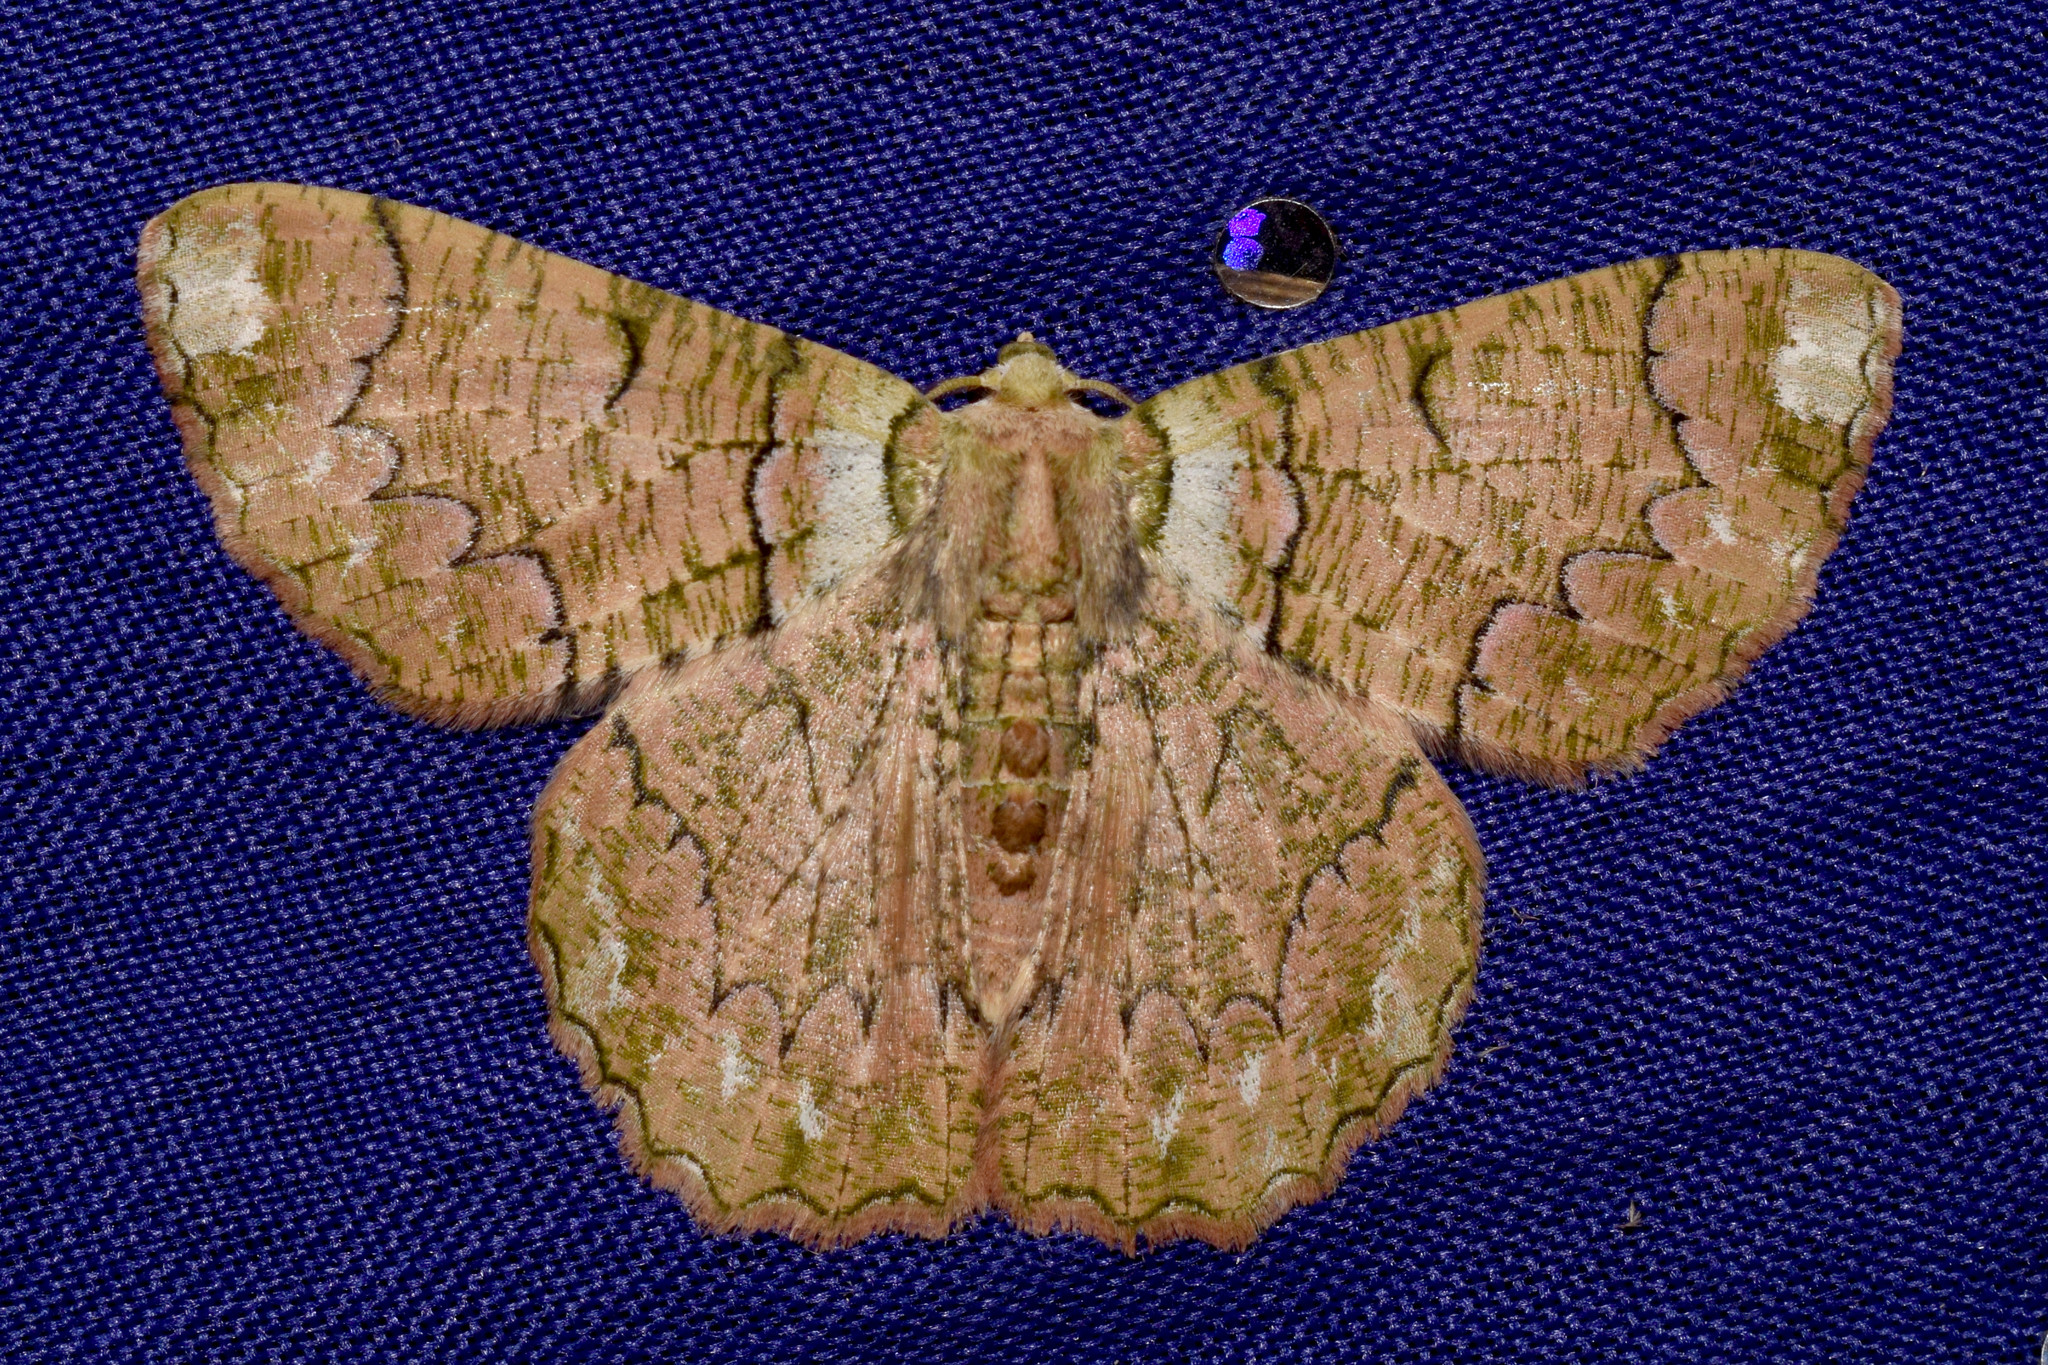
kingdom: Animalia
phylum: Arthropoda
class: Insecta
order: Lepidoptera
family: Geometridae
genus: Lophophelma
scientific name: Lophophelma funebrosa
